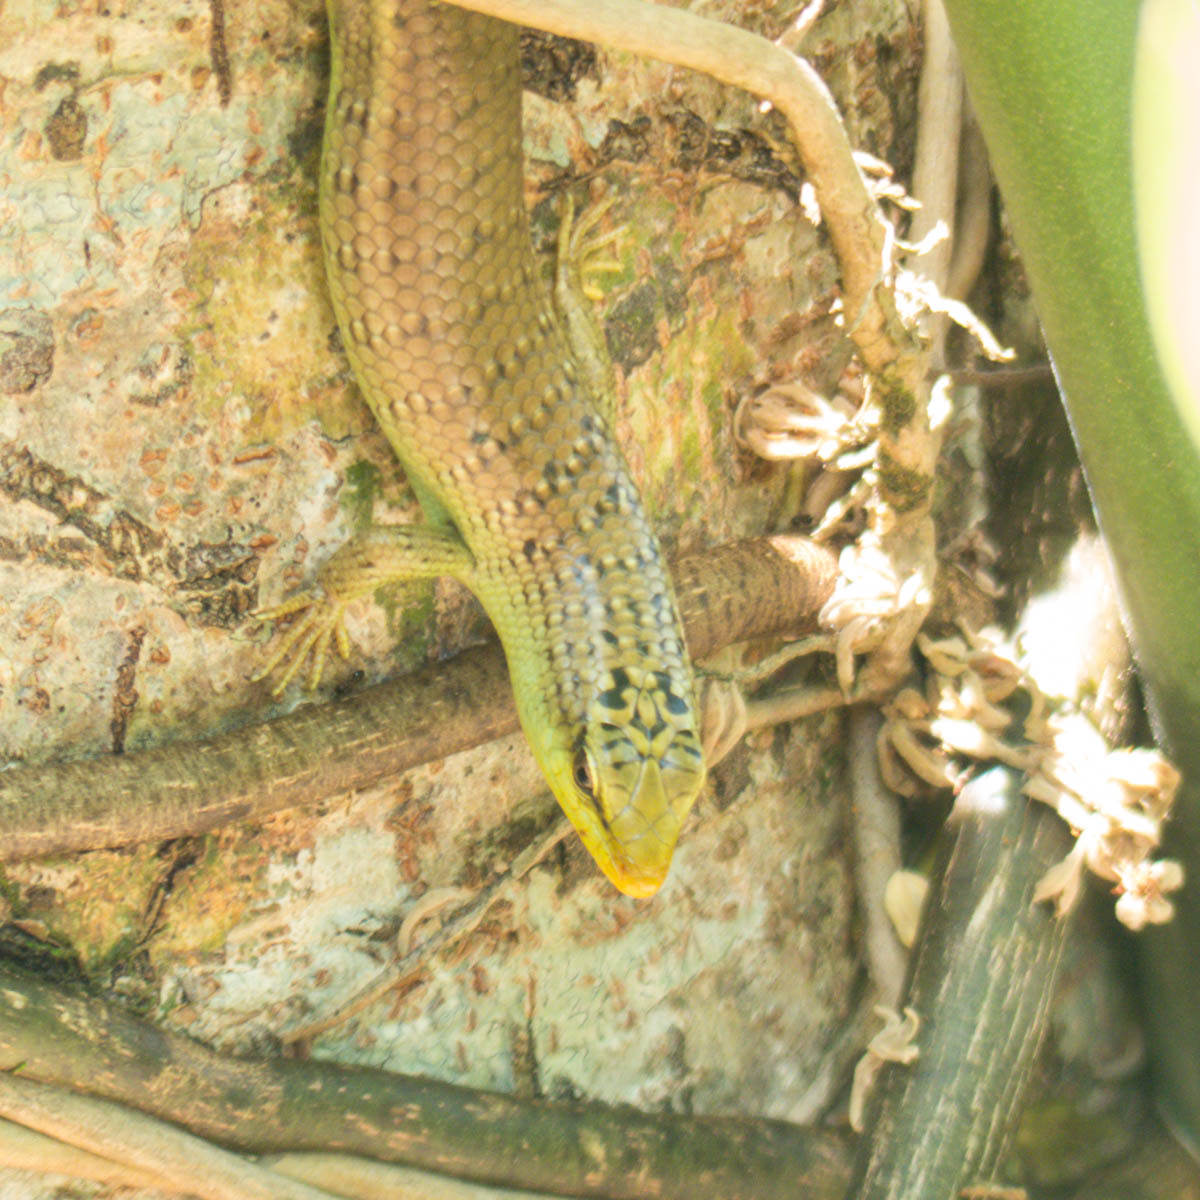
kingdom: Animalia
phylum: Chordata
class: Squamata
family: Scincidae
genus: Dasia
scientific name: Dasia olivacea
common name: Olive dasia
